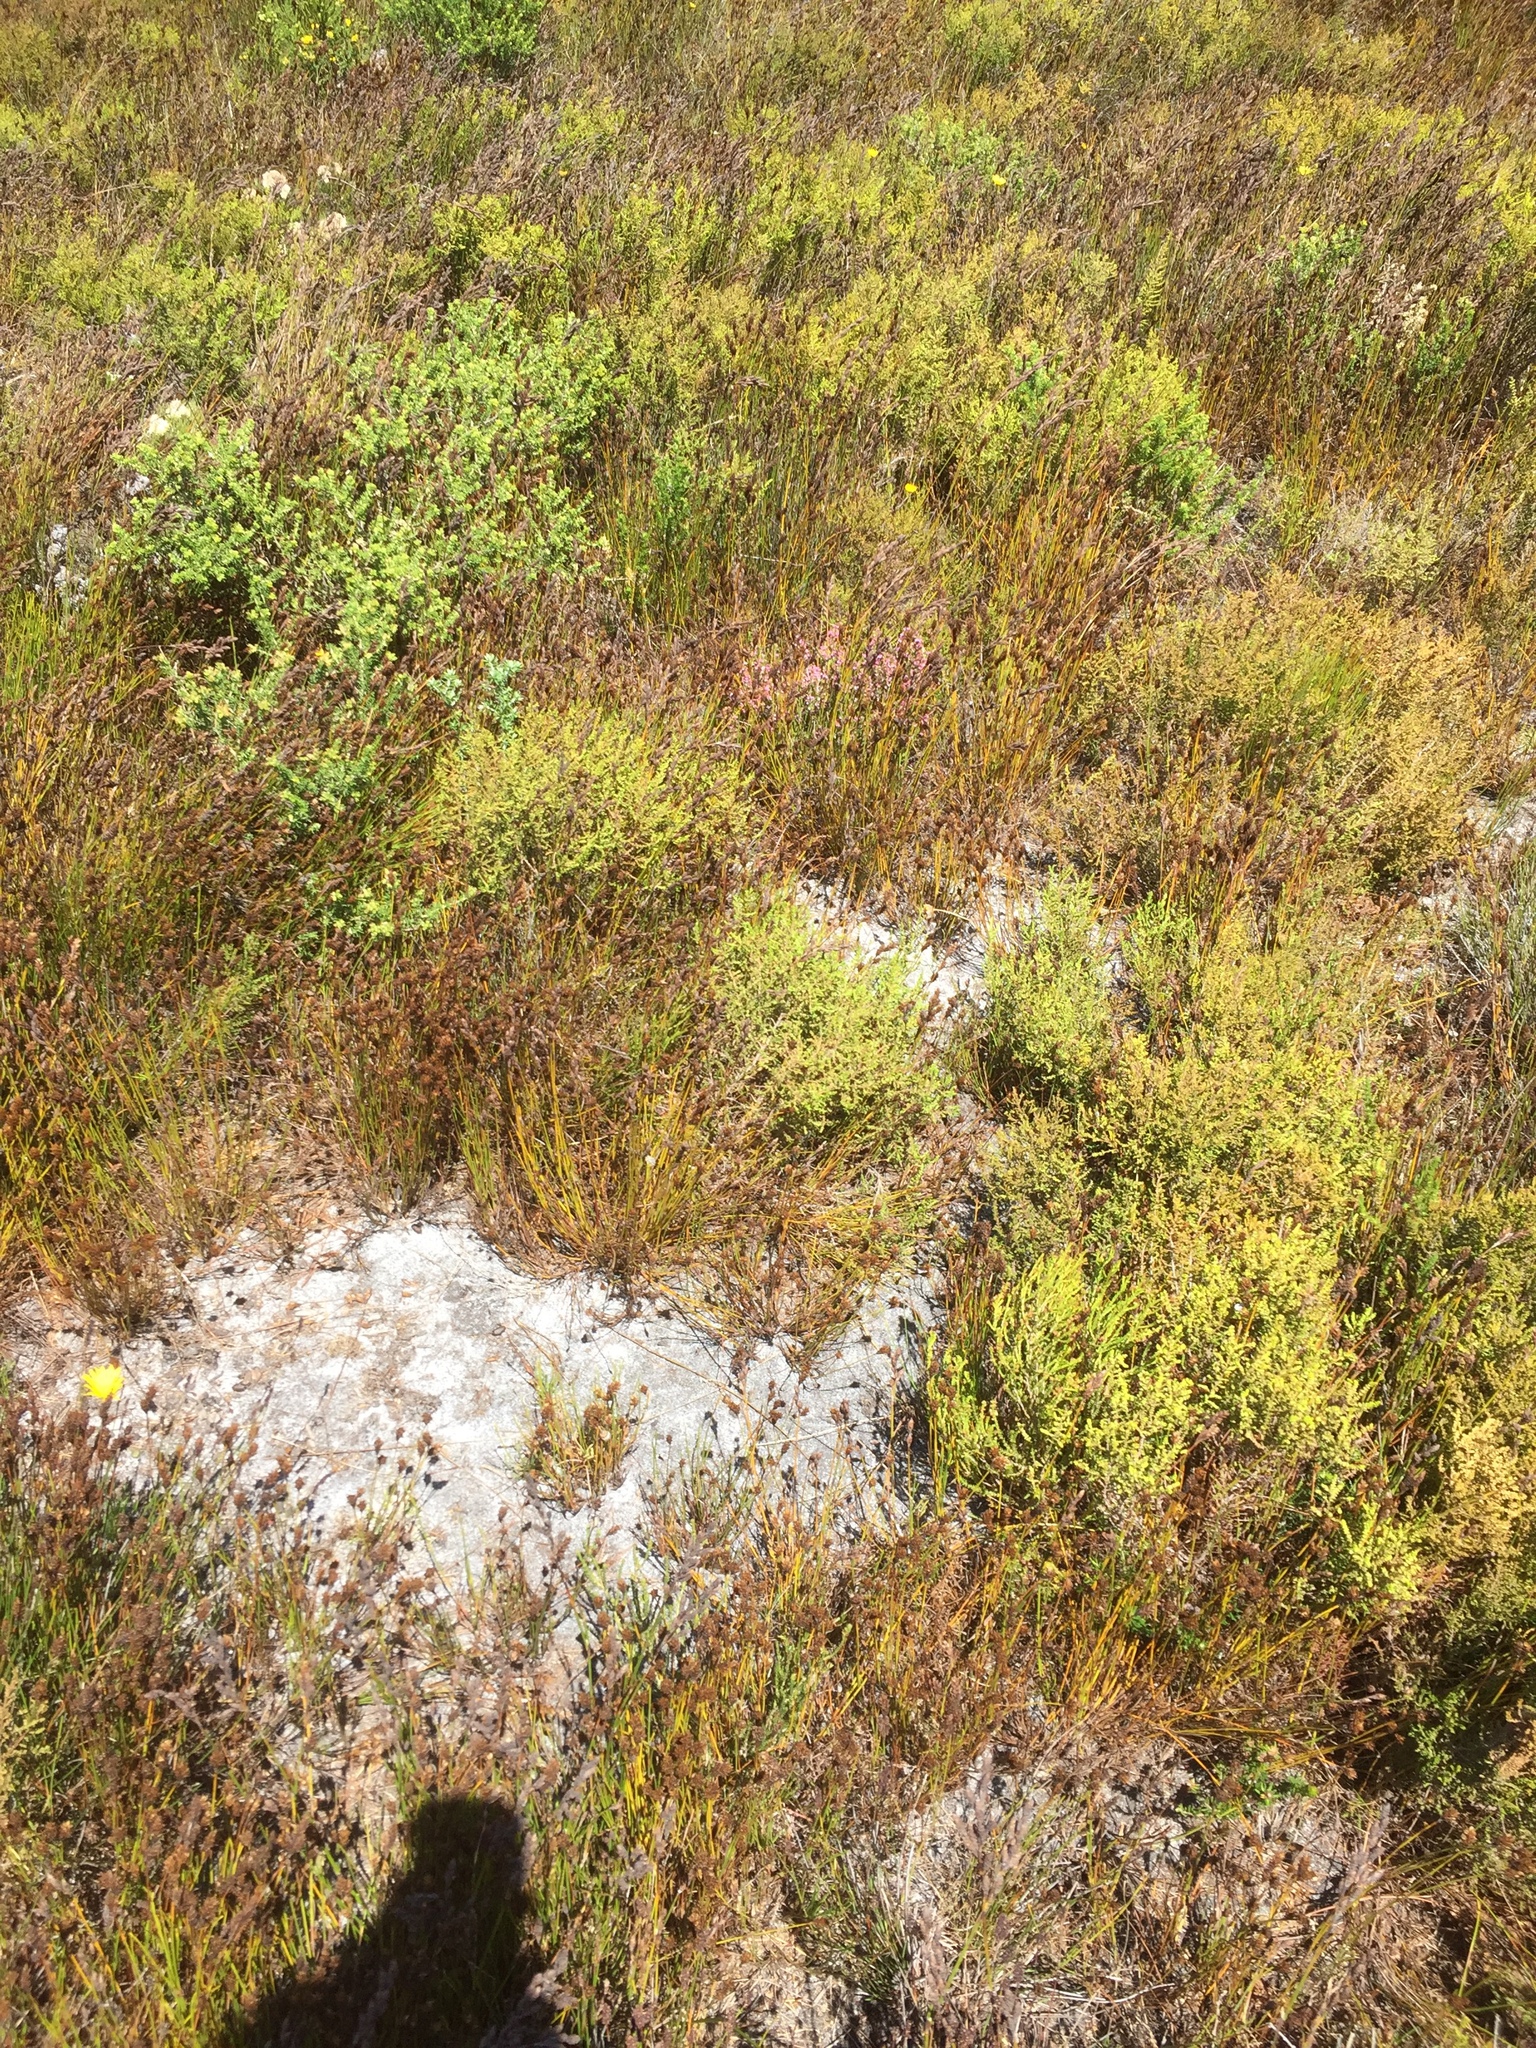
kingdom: Plantae
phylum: Tracheophyta
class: Magnoliopsida
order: Ericales
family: Ericaceae
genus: Erica
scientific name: Erica gnaphaloides
